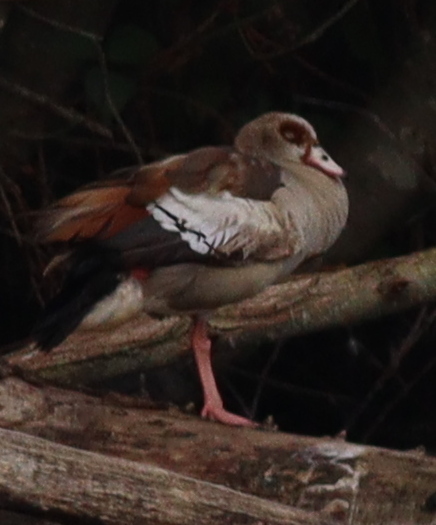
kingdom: Animalia
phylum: Chordata
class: Aves
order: Anseriformes
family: Anatidae
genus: Alopochen
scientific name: Alopochen aegyptiaca
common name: Egyptian goose
